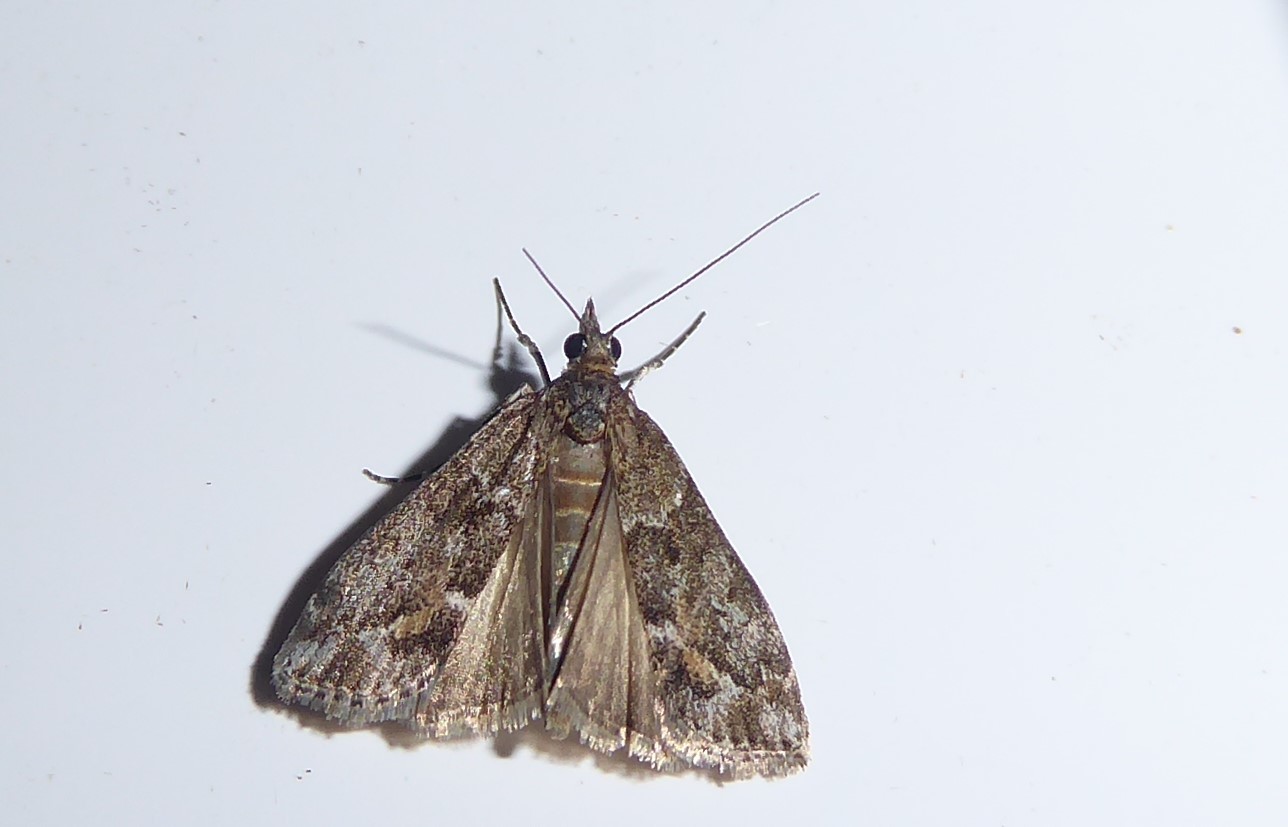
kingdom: Animalia
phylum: Arthropoda
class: Insecta
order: Lepidoptera
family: Crambidae
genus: Eudonia
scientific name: Eudonia submarginalis
